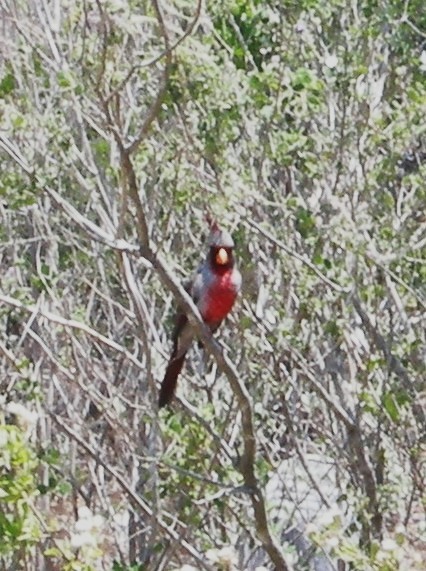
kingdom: Animalia
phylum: Chordata
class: Aves
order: Passeriformes
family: Cardinalidae
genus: Cardinalis
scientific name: Cardinalis sinuatus
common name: Pyrrhuloxia
